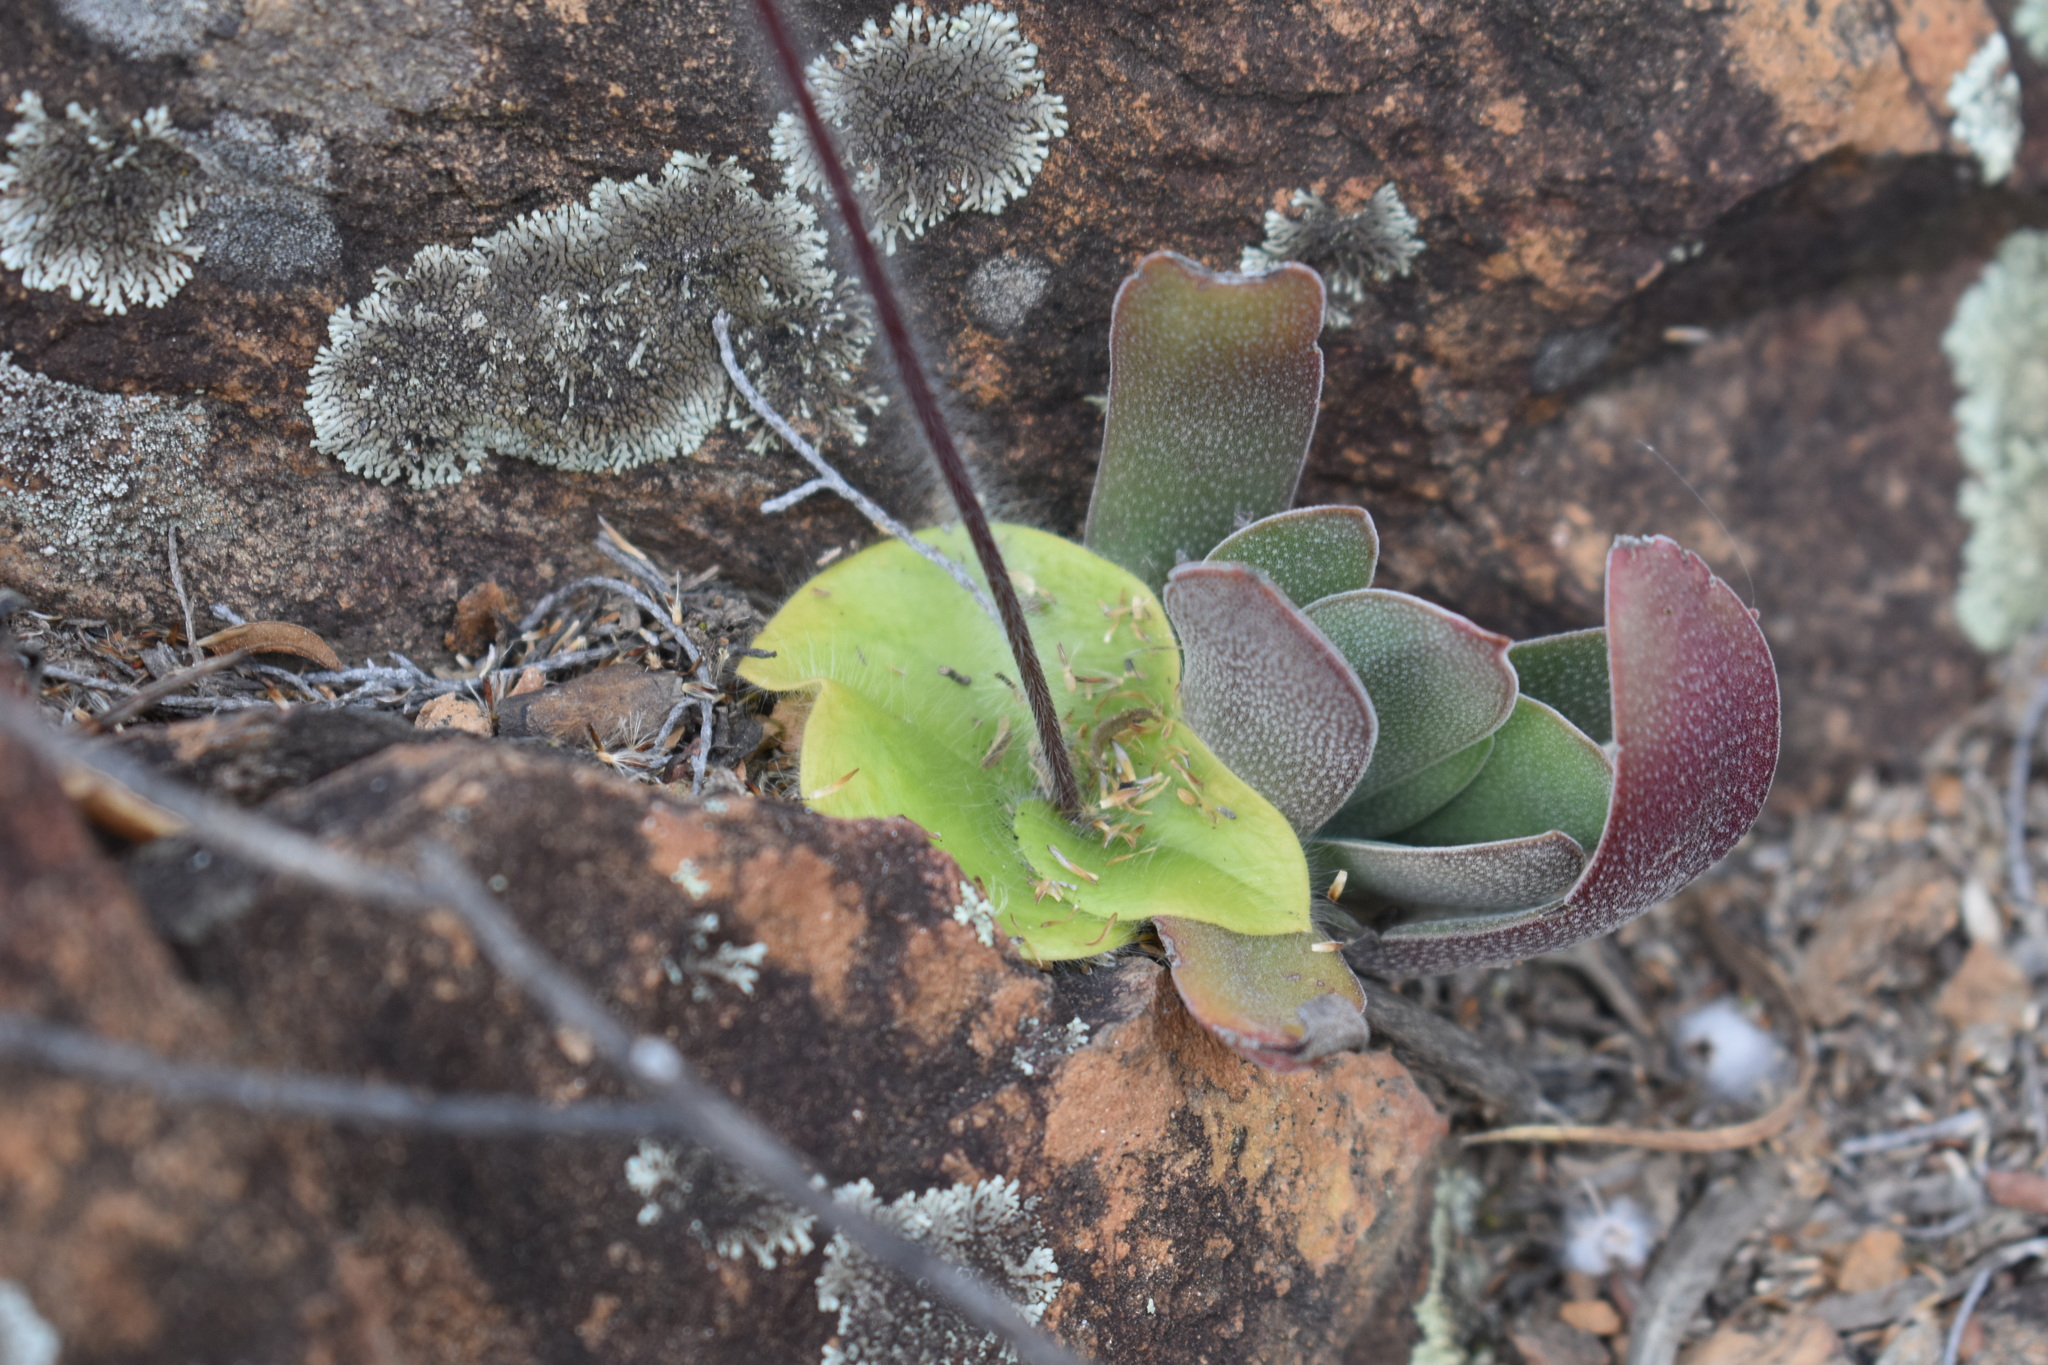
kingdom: Plantae
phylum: Tracheophyta
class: Liliopsida
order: Asparagales
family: Orchidaceae
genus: Holothrix
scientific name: Holothrix villosa
